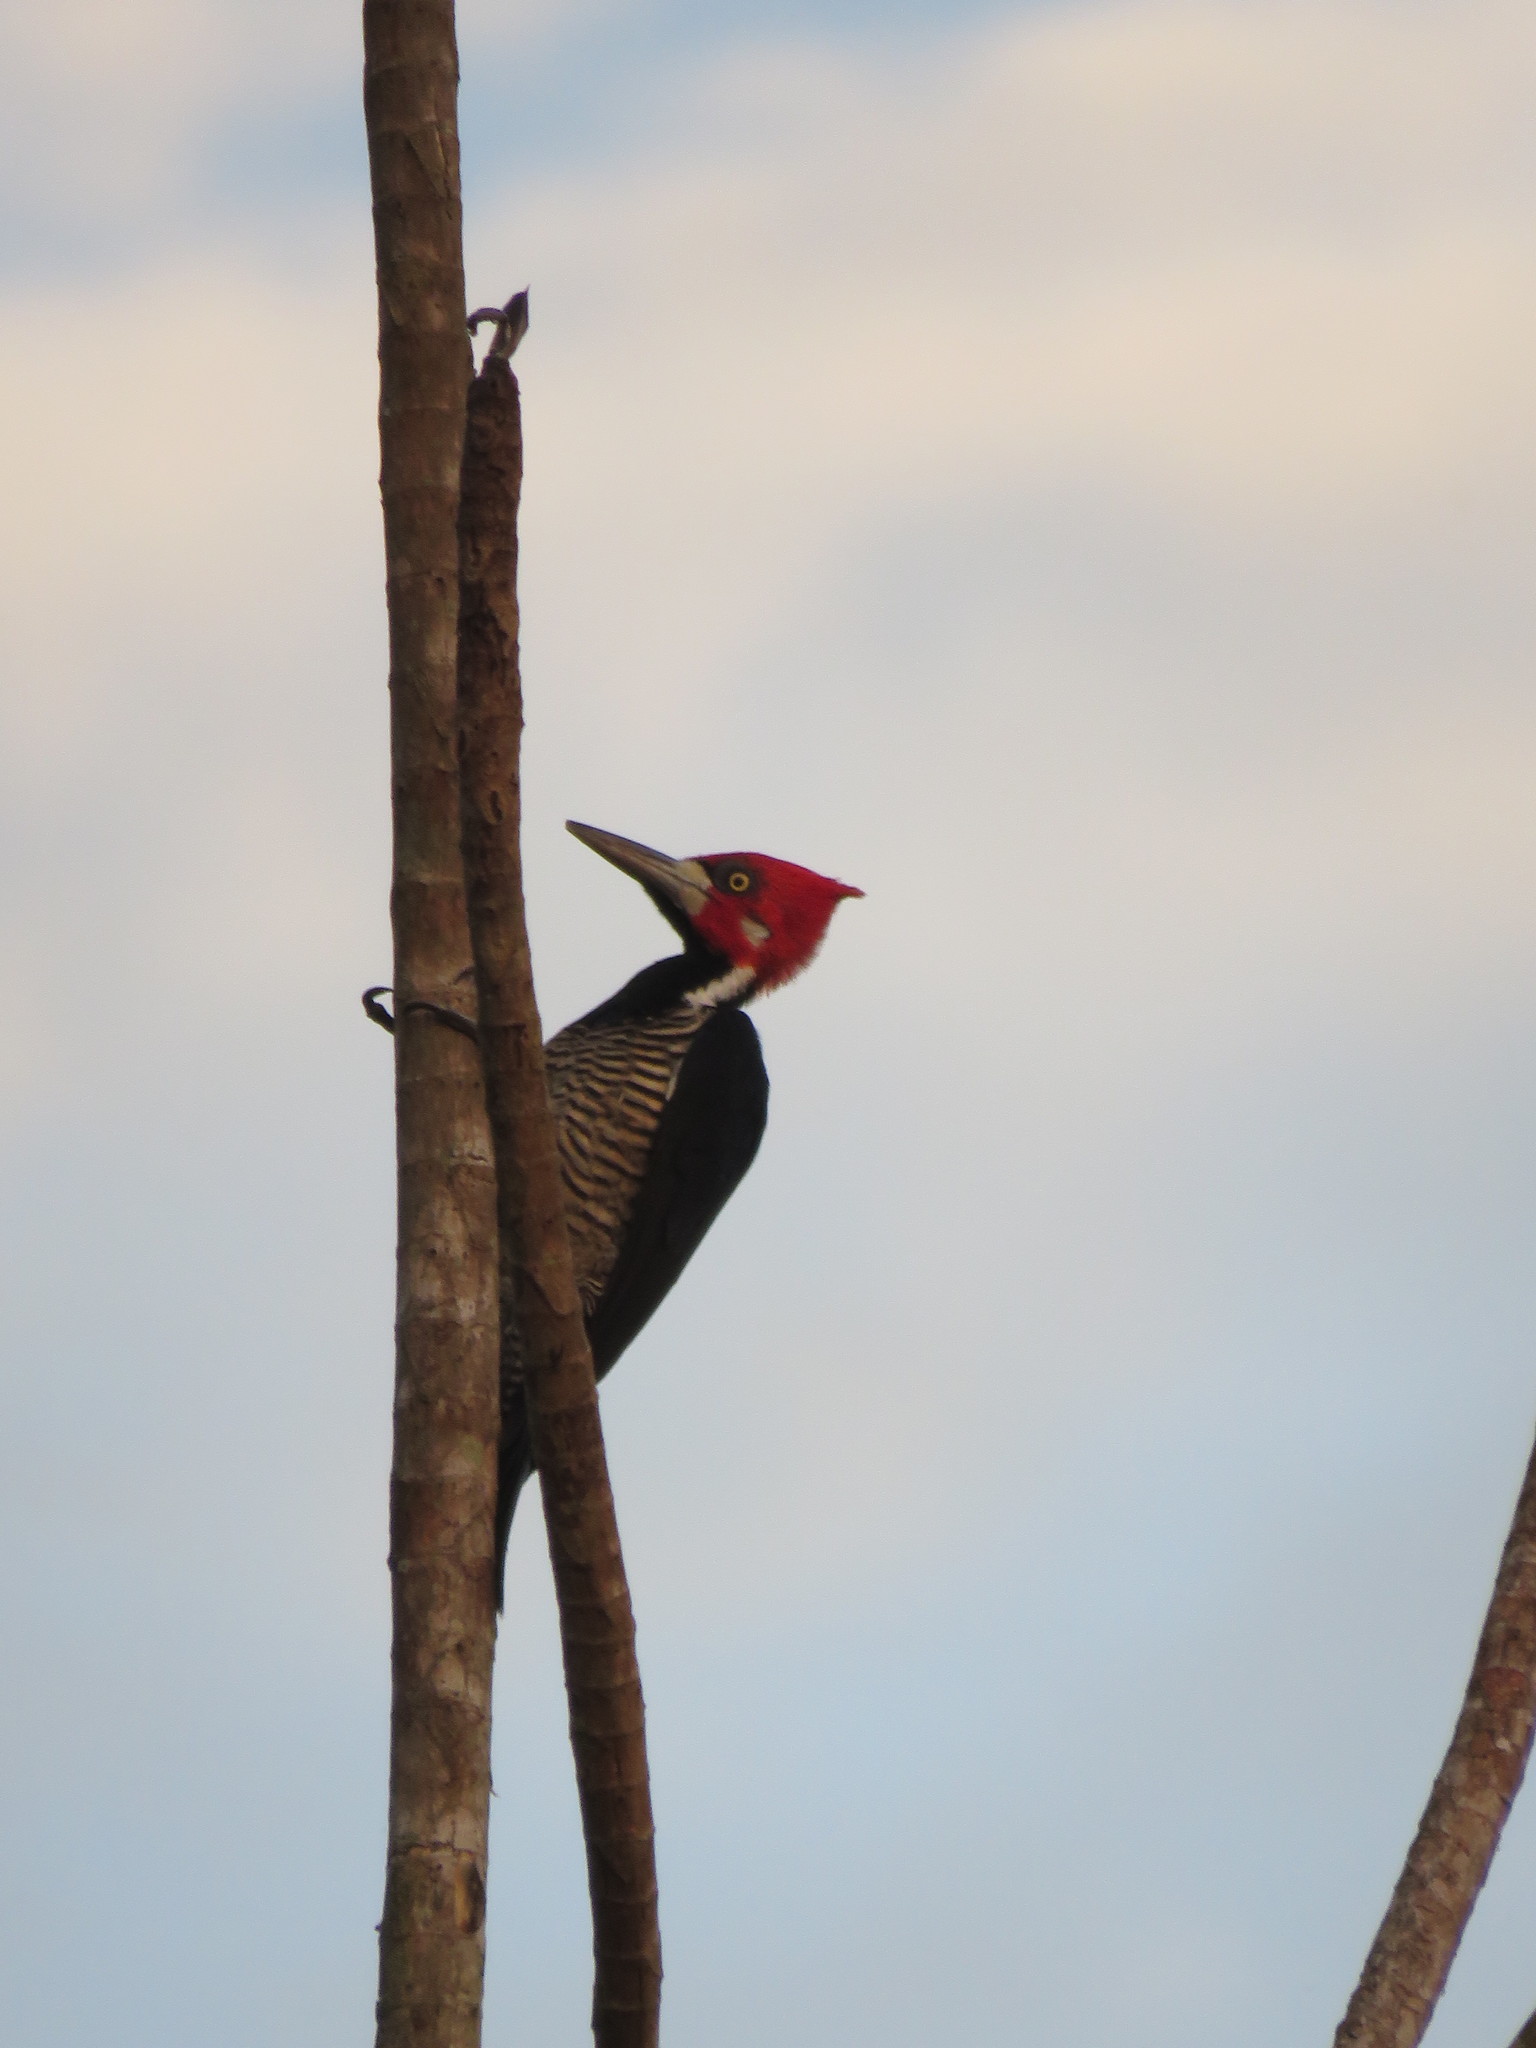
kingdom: Animalia
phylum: Chordata
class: Aves
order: Piciformes
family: Picidae
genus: Campephilus
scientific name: Campephilus melanoleucos
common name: Crimson-crested woodpecker
